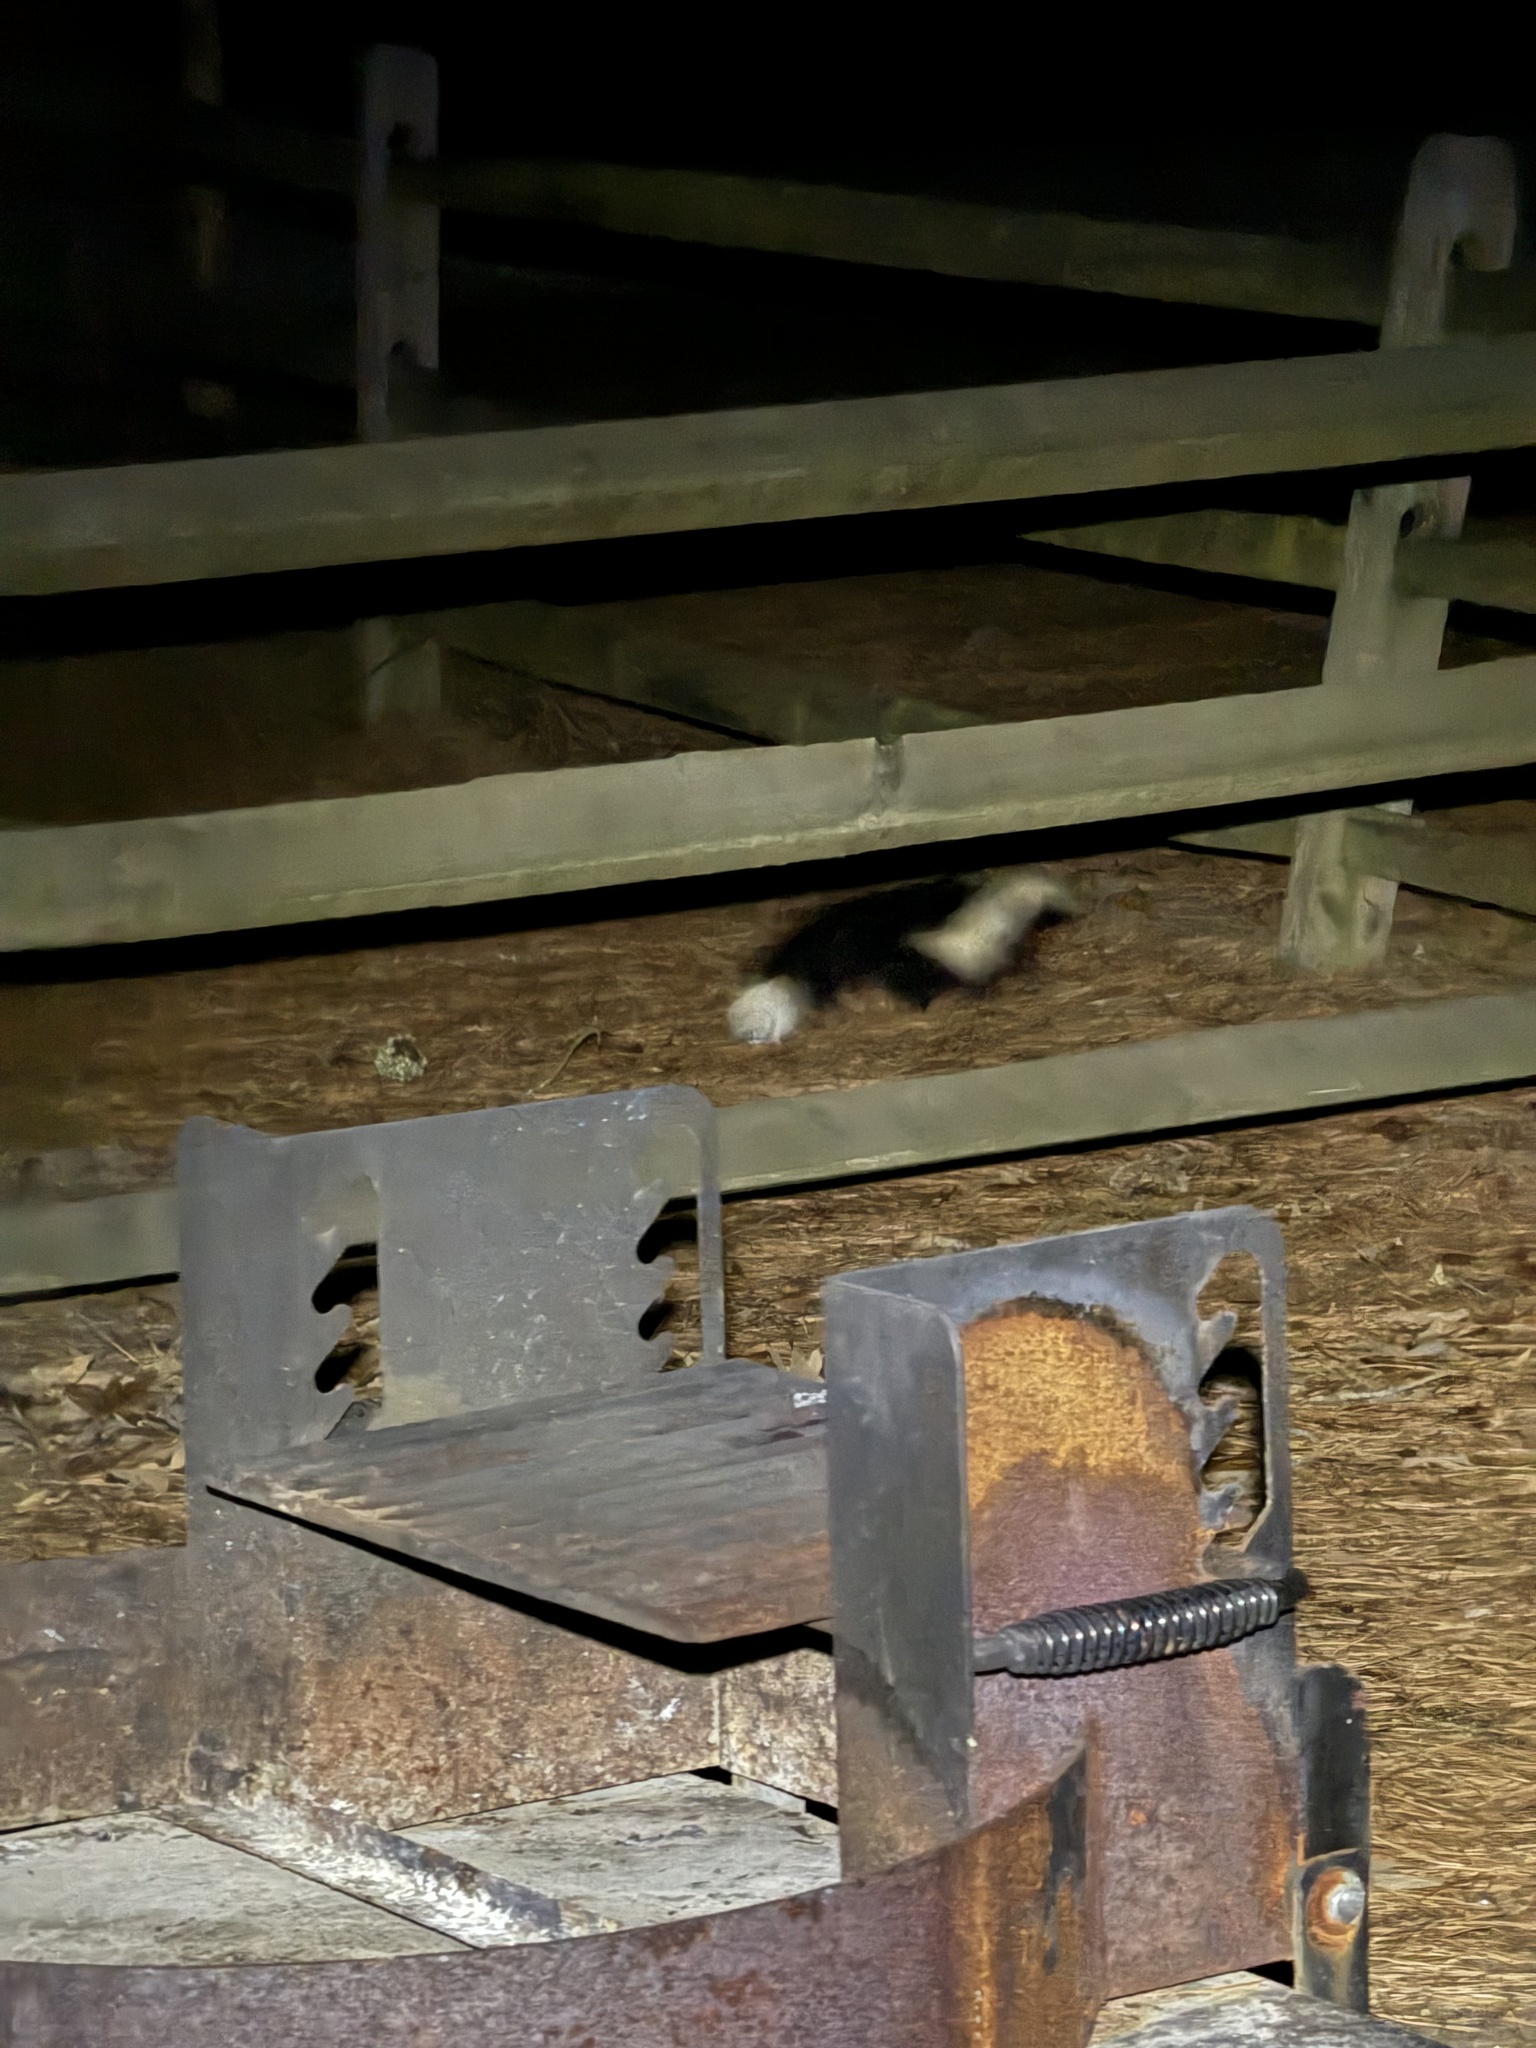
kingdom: Animalia
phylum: Chordata
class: Mammalia
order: Carnivora
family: Mephitidae
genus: Mephitis
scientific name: Mephitis mephitis
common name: Striped skunk
